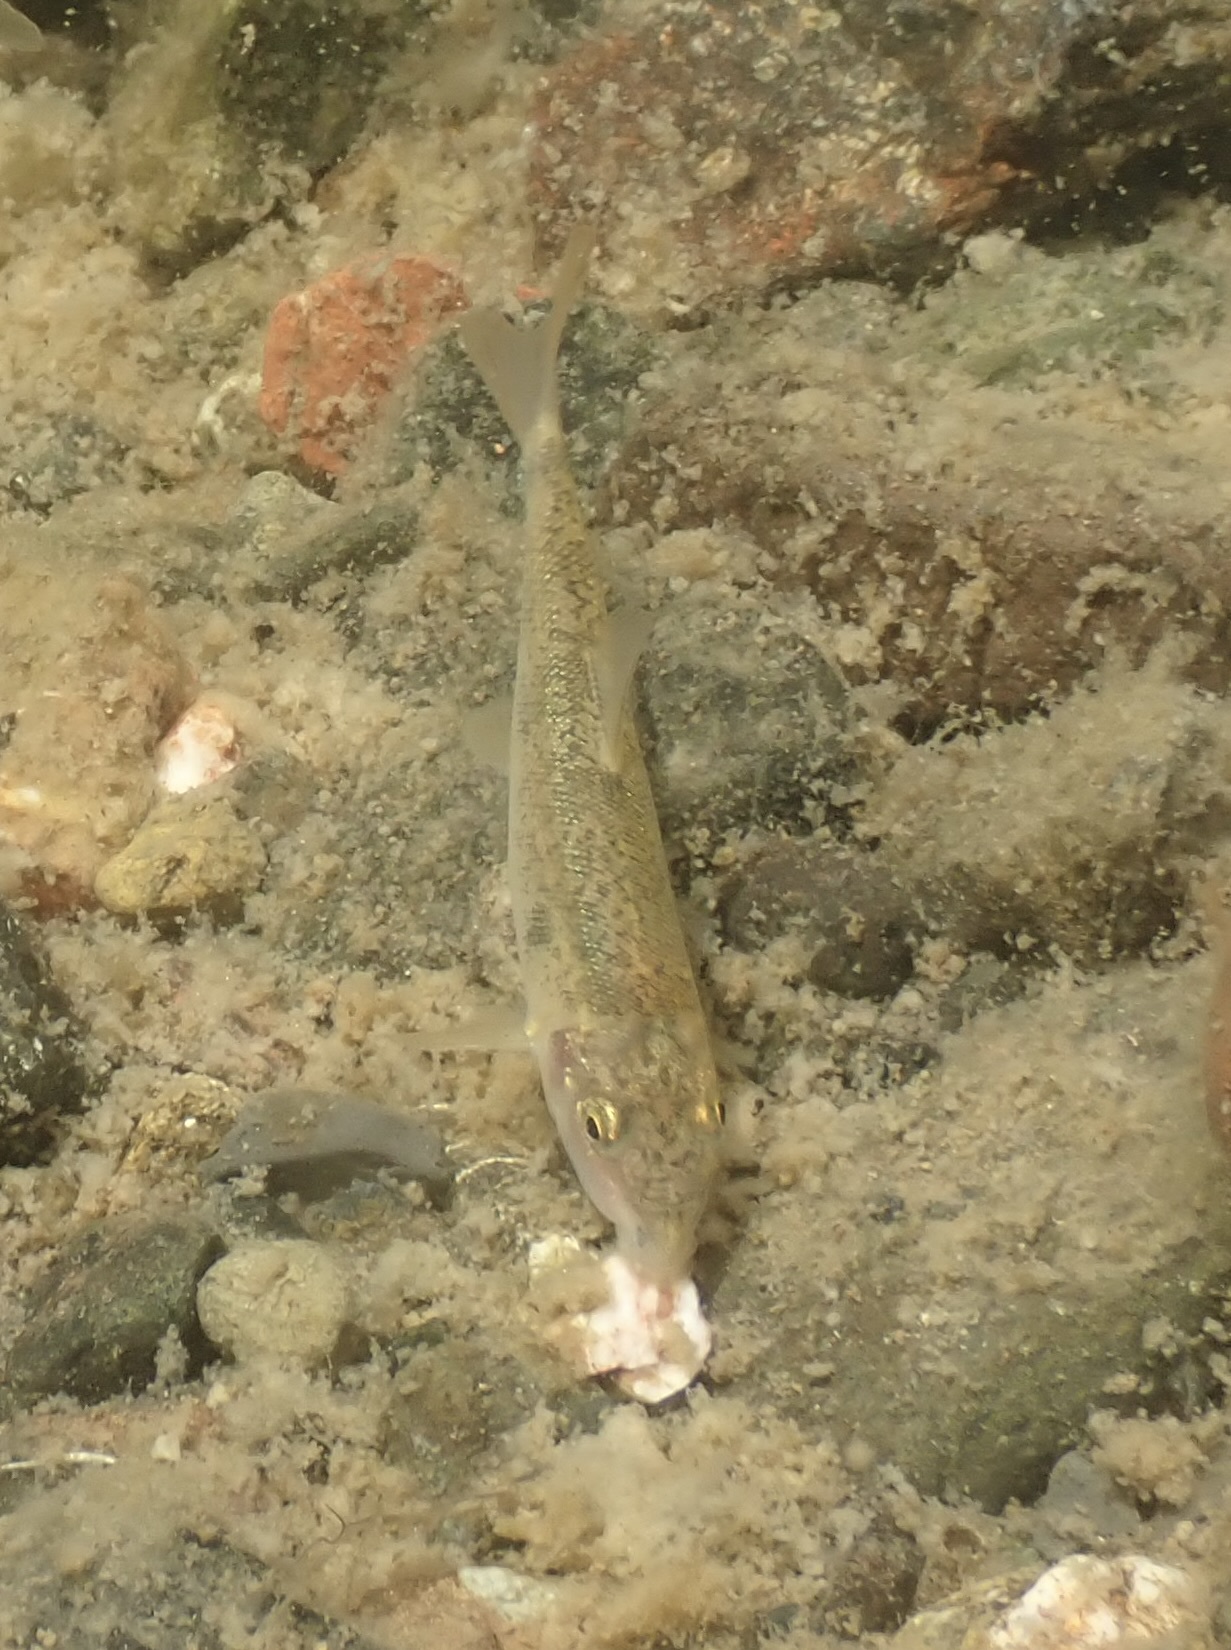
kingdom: Animalia
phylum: Chordata
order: Cypriniformes
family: Catostomidae
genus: Catostomus
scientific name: Catostomus occidentalis
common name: Goose lake sucker
